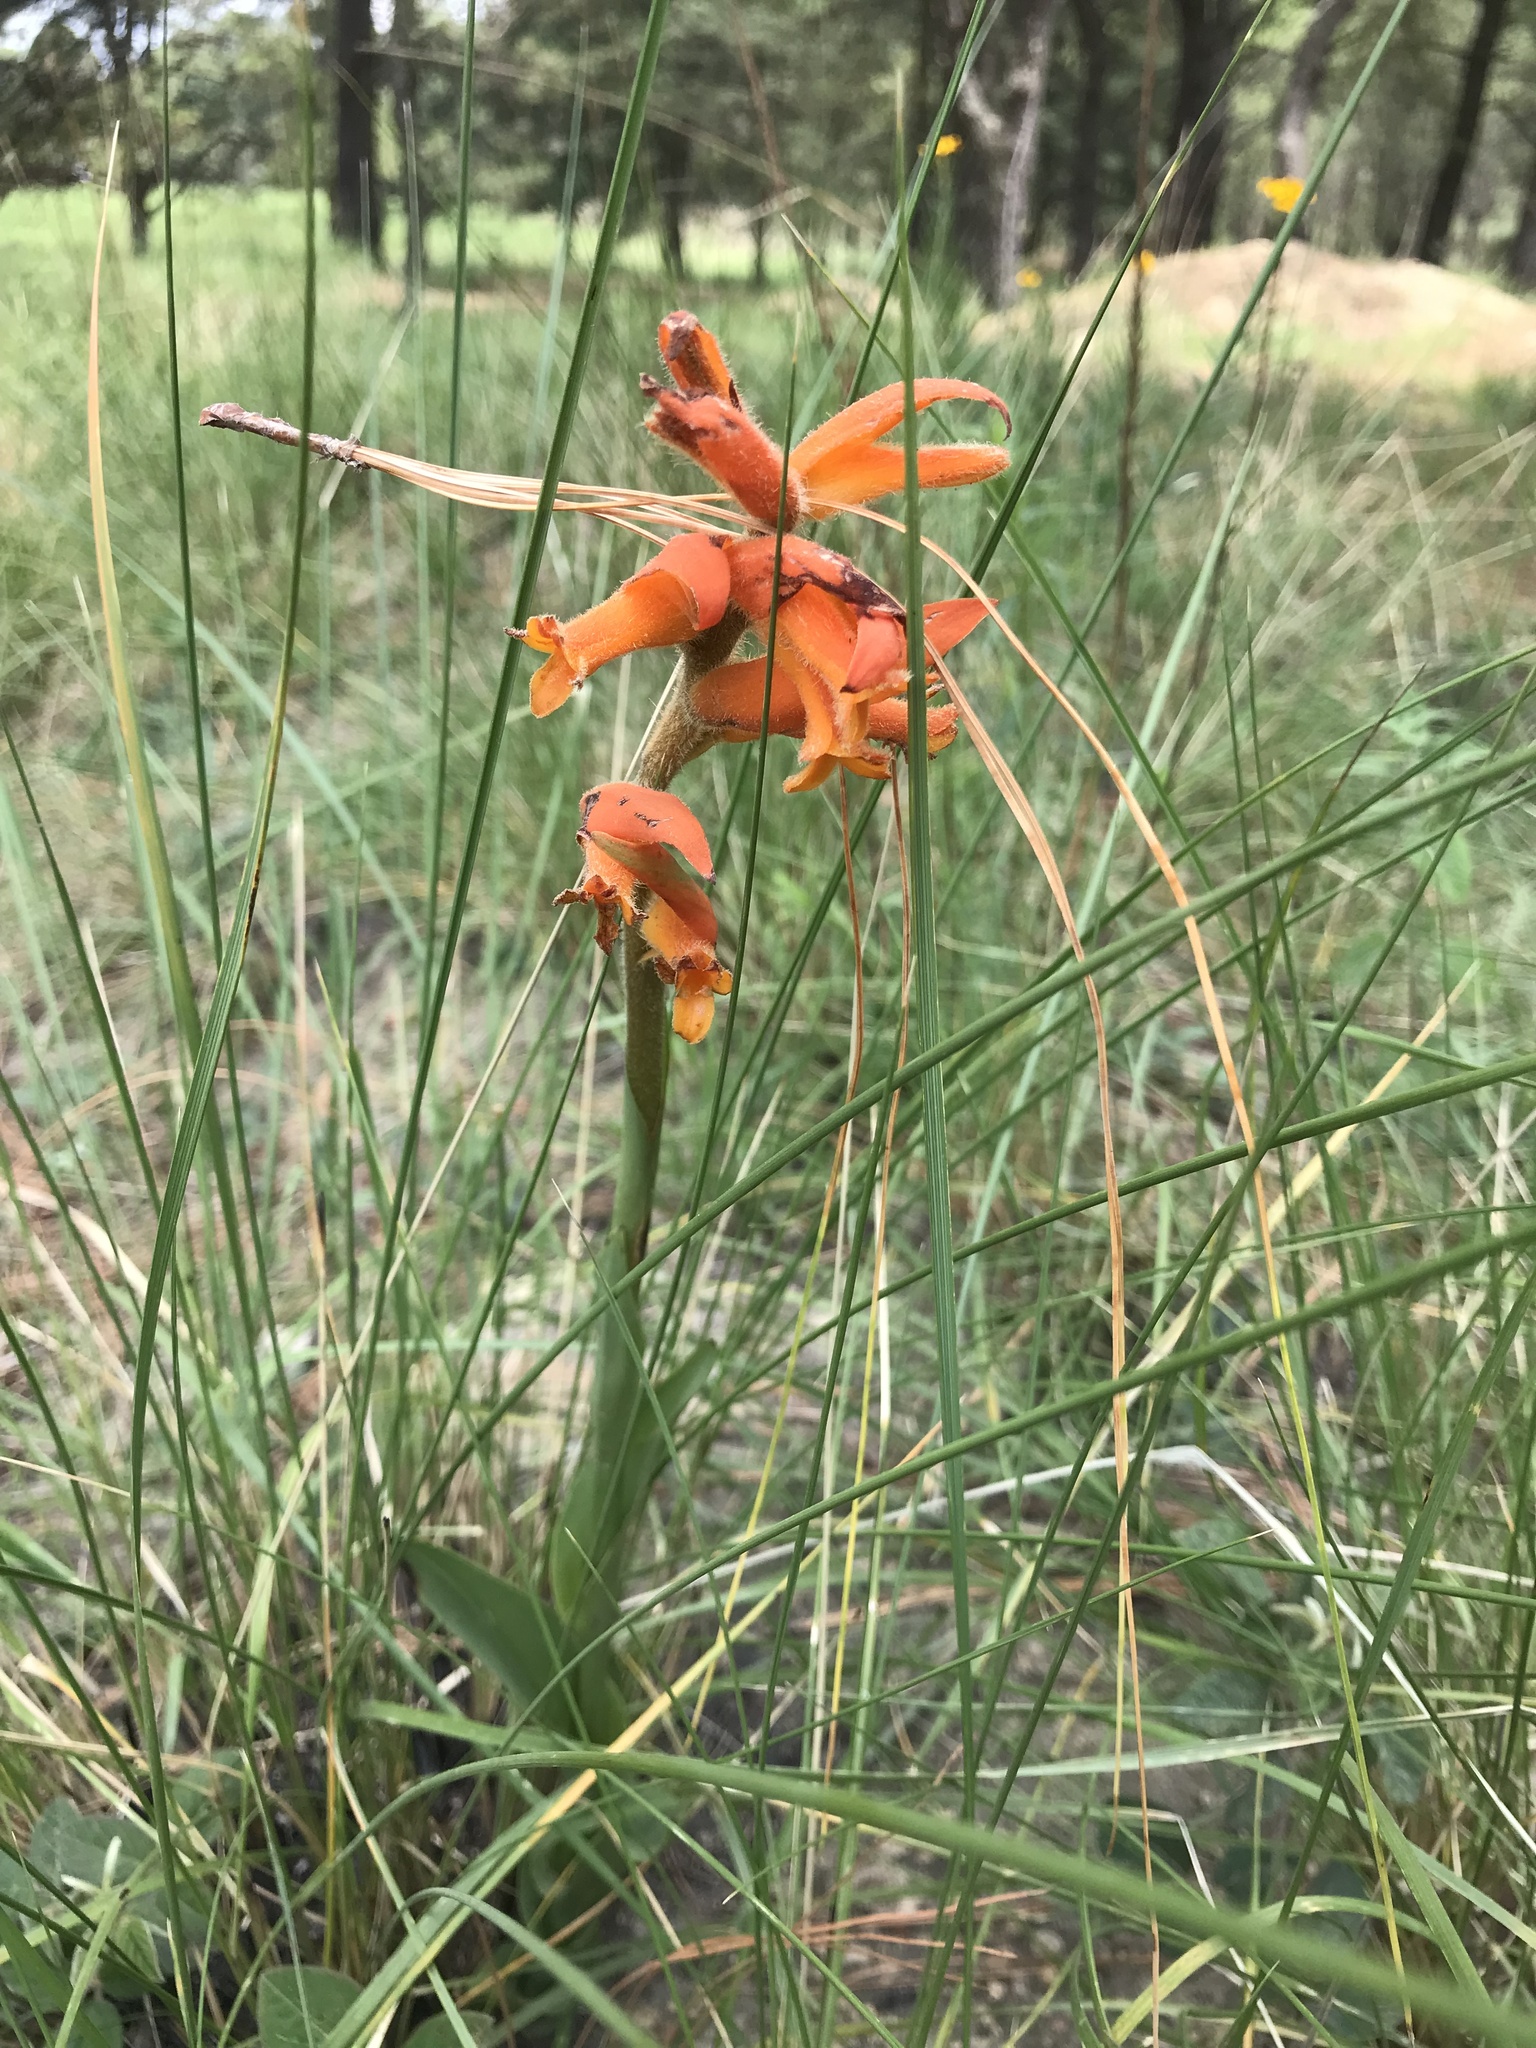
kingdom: Plantae
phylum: Tracheophyta
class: Liliopsida
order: Asparagales
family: Orchidaceae
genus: Dichromanthus
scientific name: Dichromanthus aurantiacus
